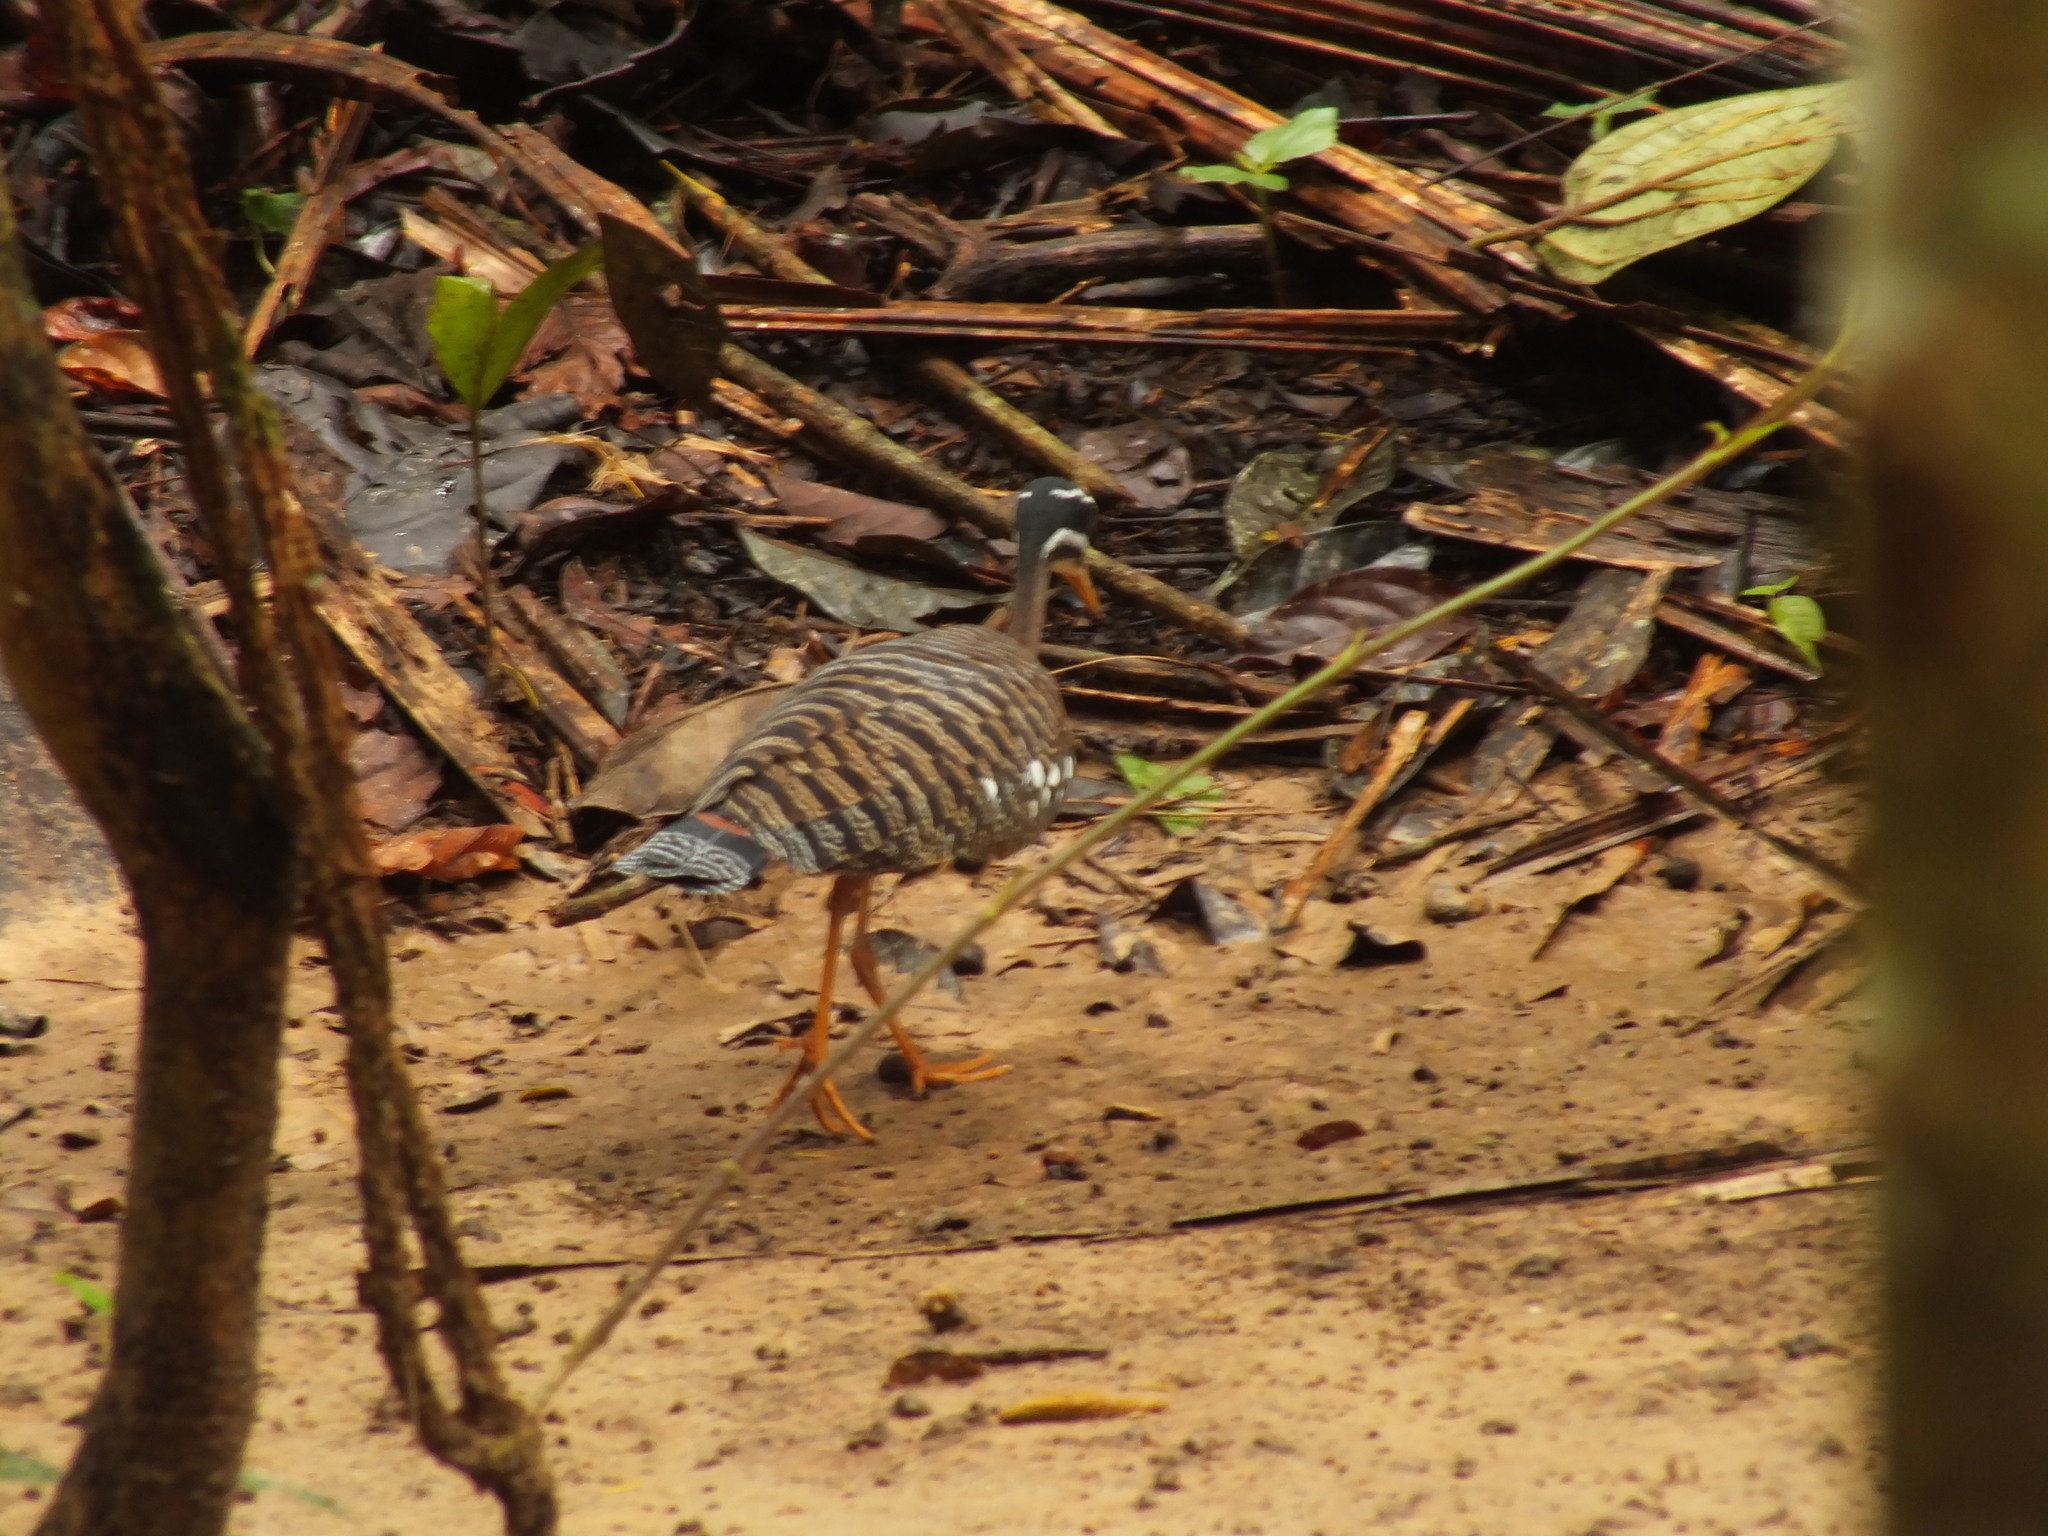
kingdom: Animalia
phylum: Chordata
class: Aves
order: Eurypygiformes
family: Eurypygidae
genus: Eurypyga
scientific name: Eurypyga helias
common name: Sunbittern
